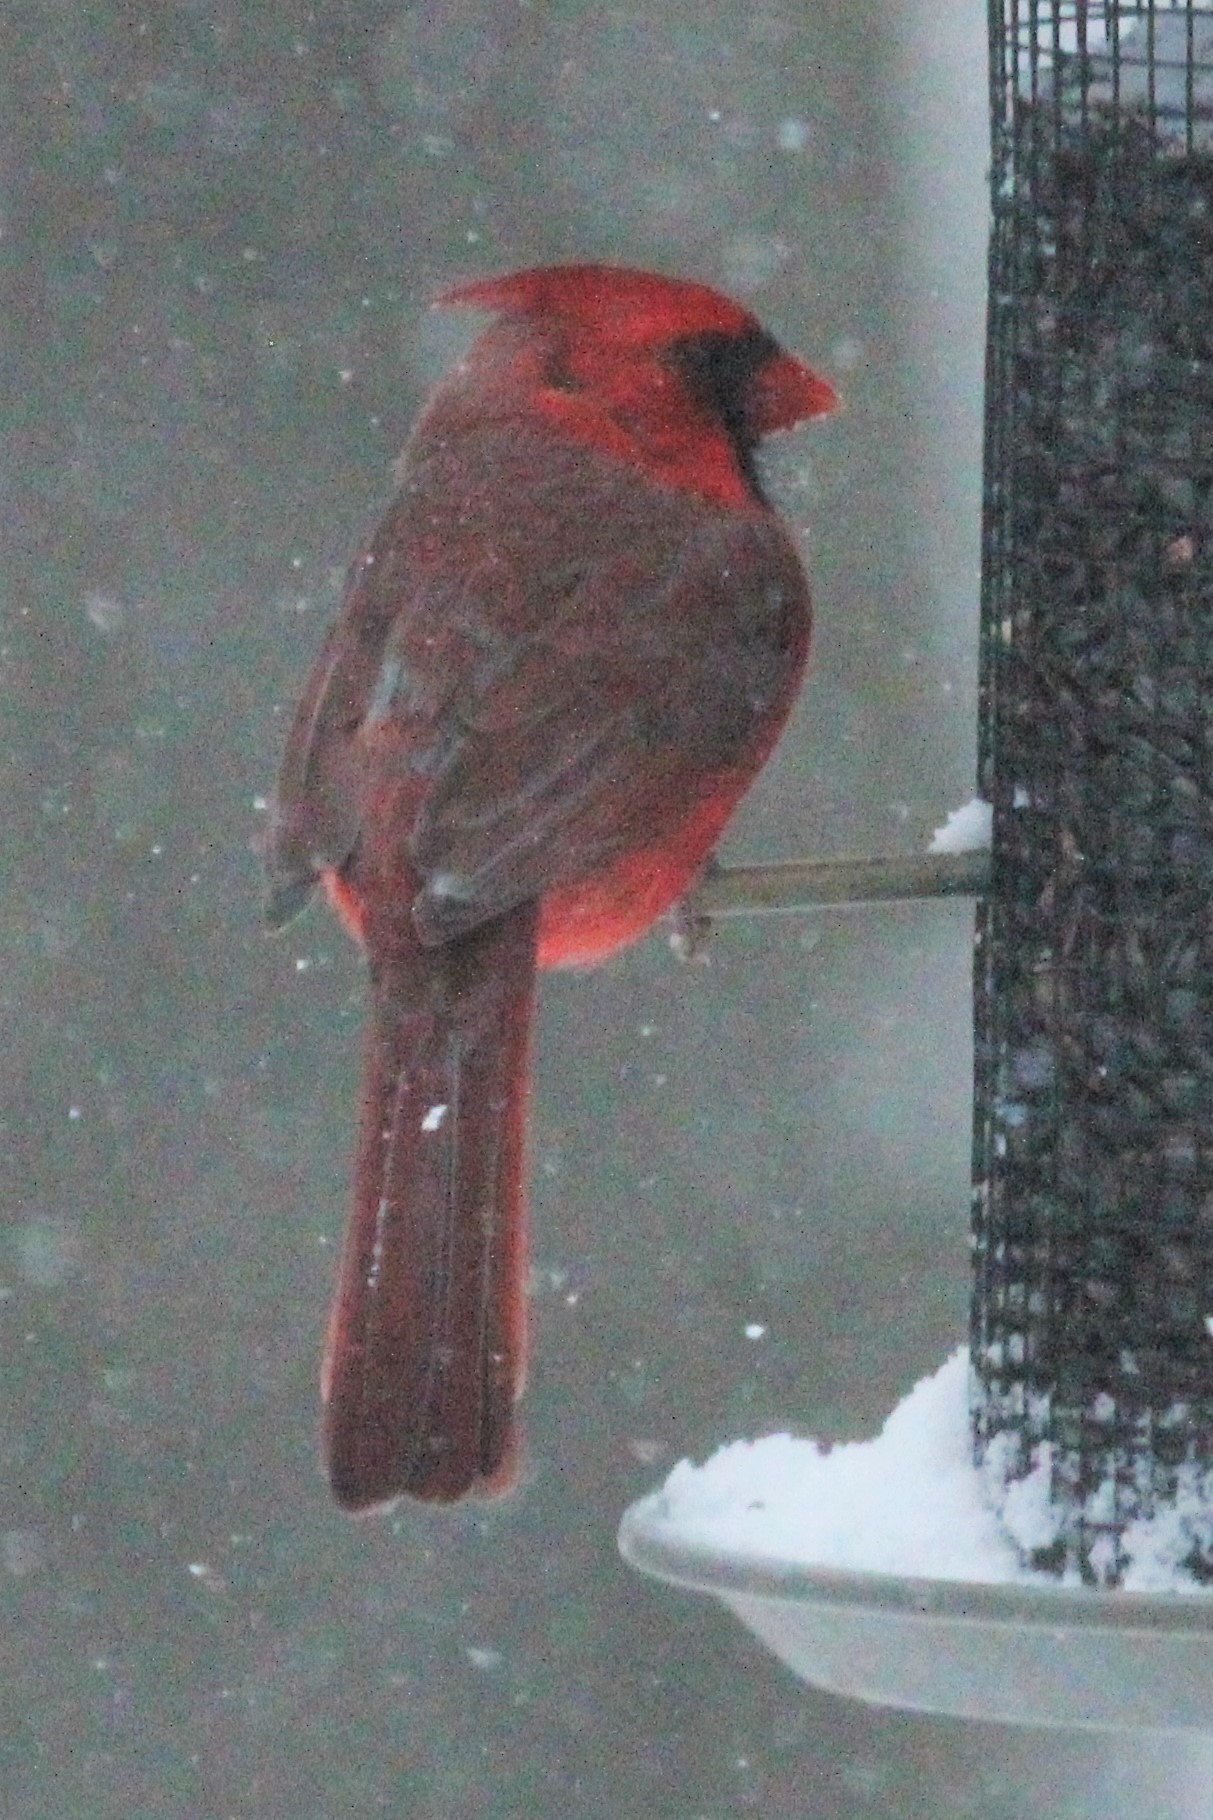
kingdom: Animalia
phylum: Chordata
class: Aves
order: Passeriformes
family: Cardinalidae
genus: Cardinalis
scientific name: Cardinalis cardinalis
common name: Northern cardinal
